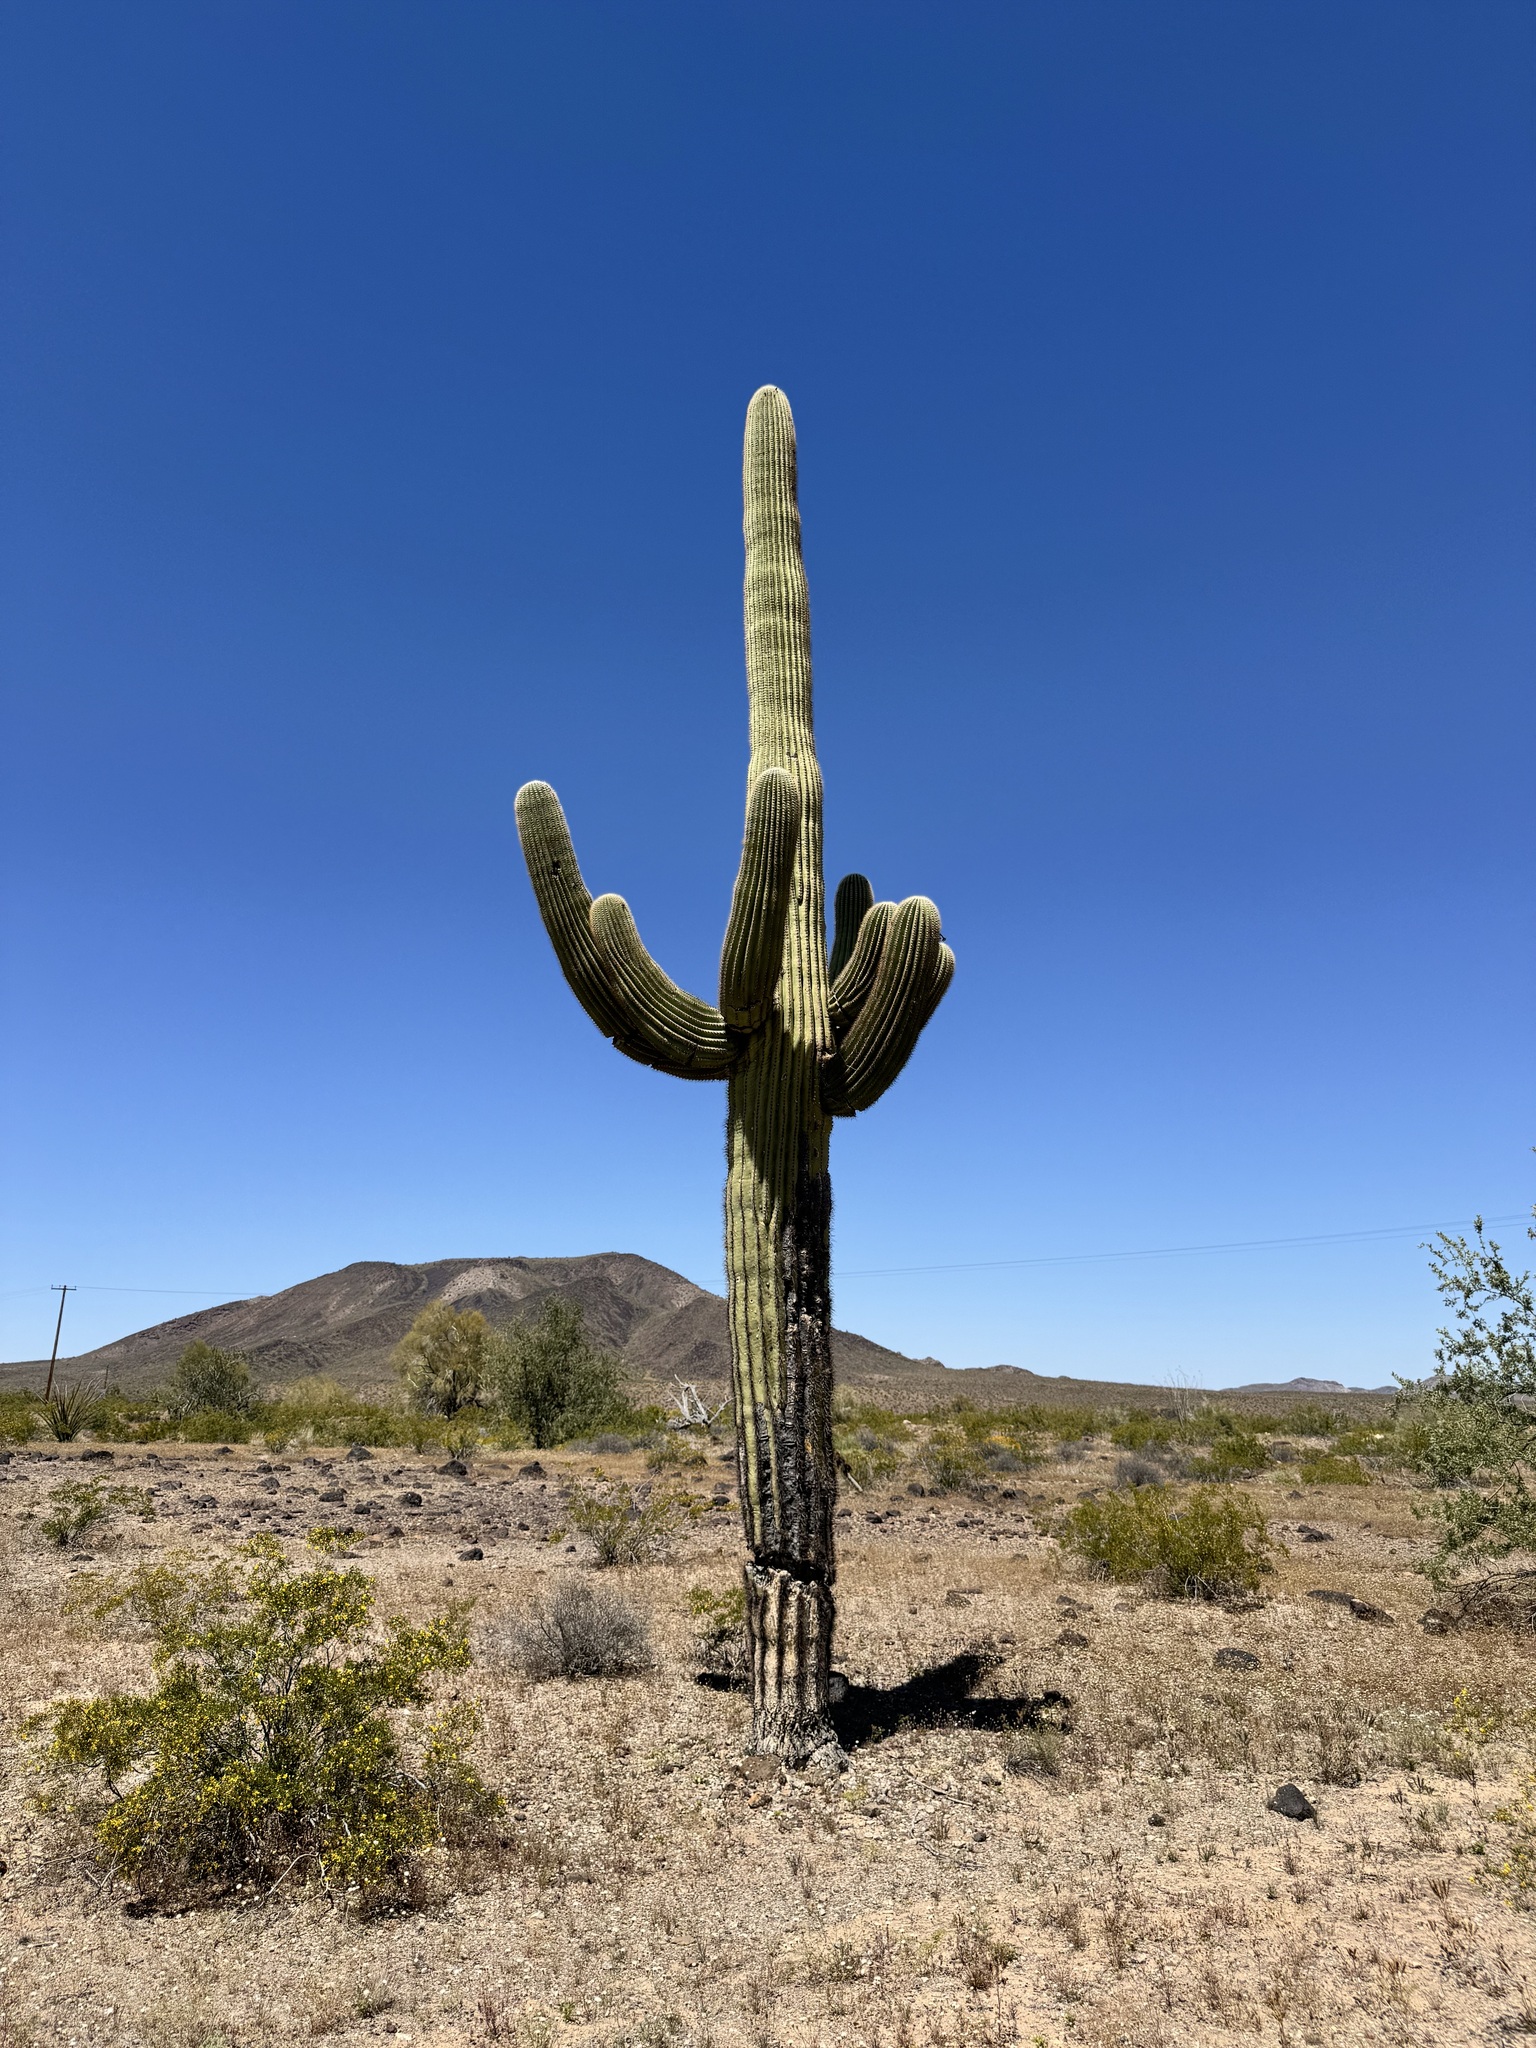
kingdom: Plantae
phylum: Tracheophyta
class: Magnoliopsida
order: Caryophyllales
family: Cactaceae
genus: Carnegiea
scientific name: Carnegiea gigantea
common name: Saguaro
